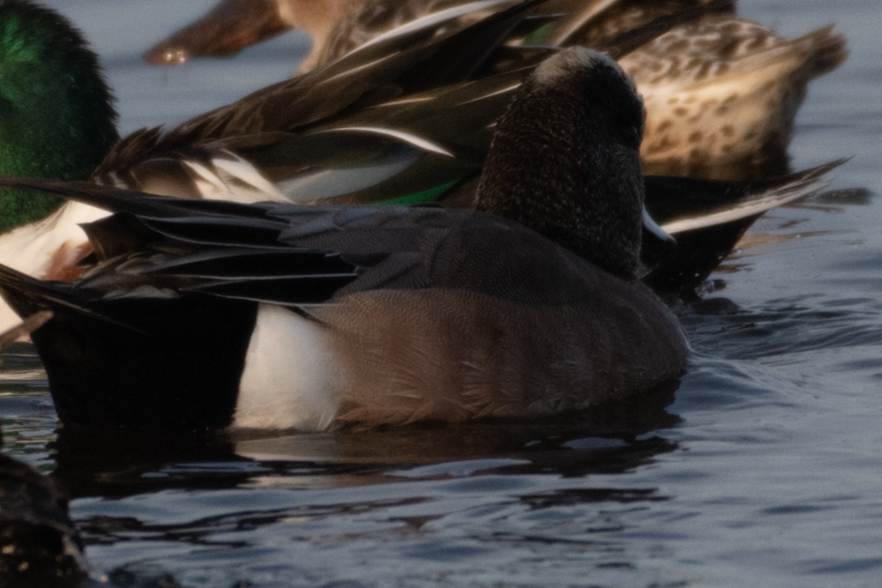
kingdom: Animalia
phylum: Chordata
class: Aves
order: Anseriformes
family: Anatidae
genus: Mareca
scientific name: Mareca americana
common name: American wigeon
